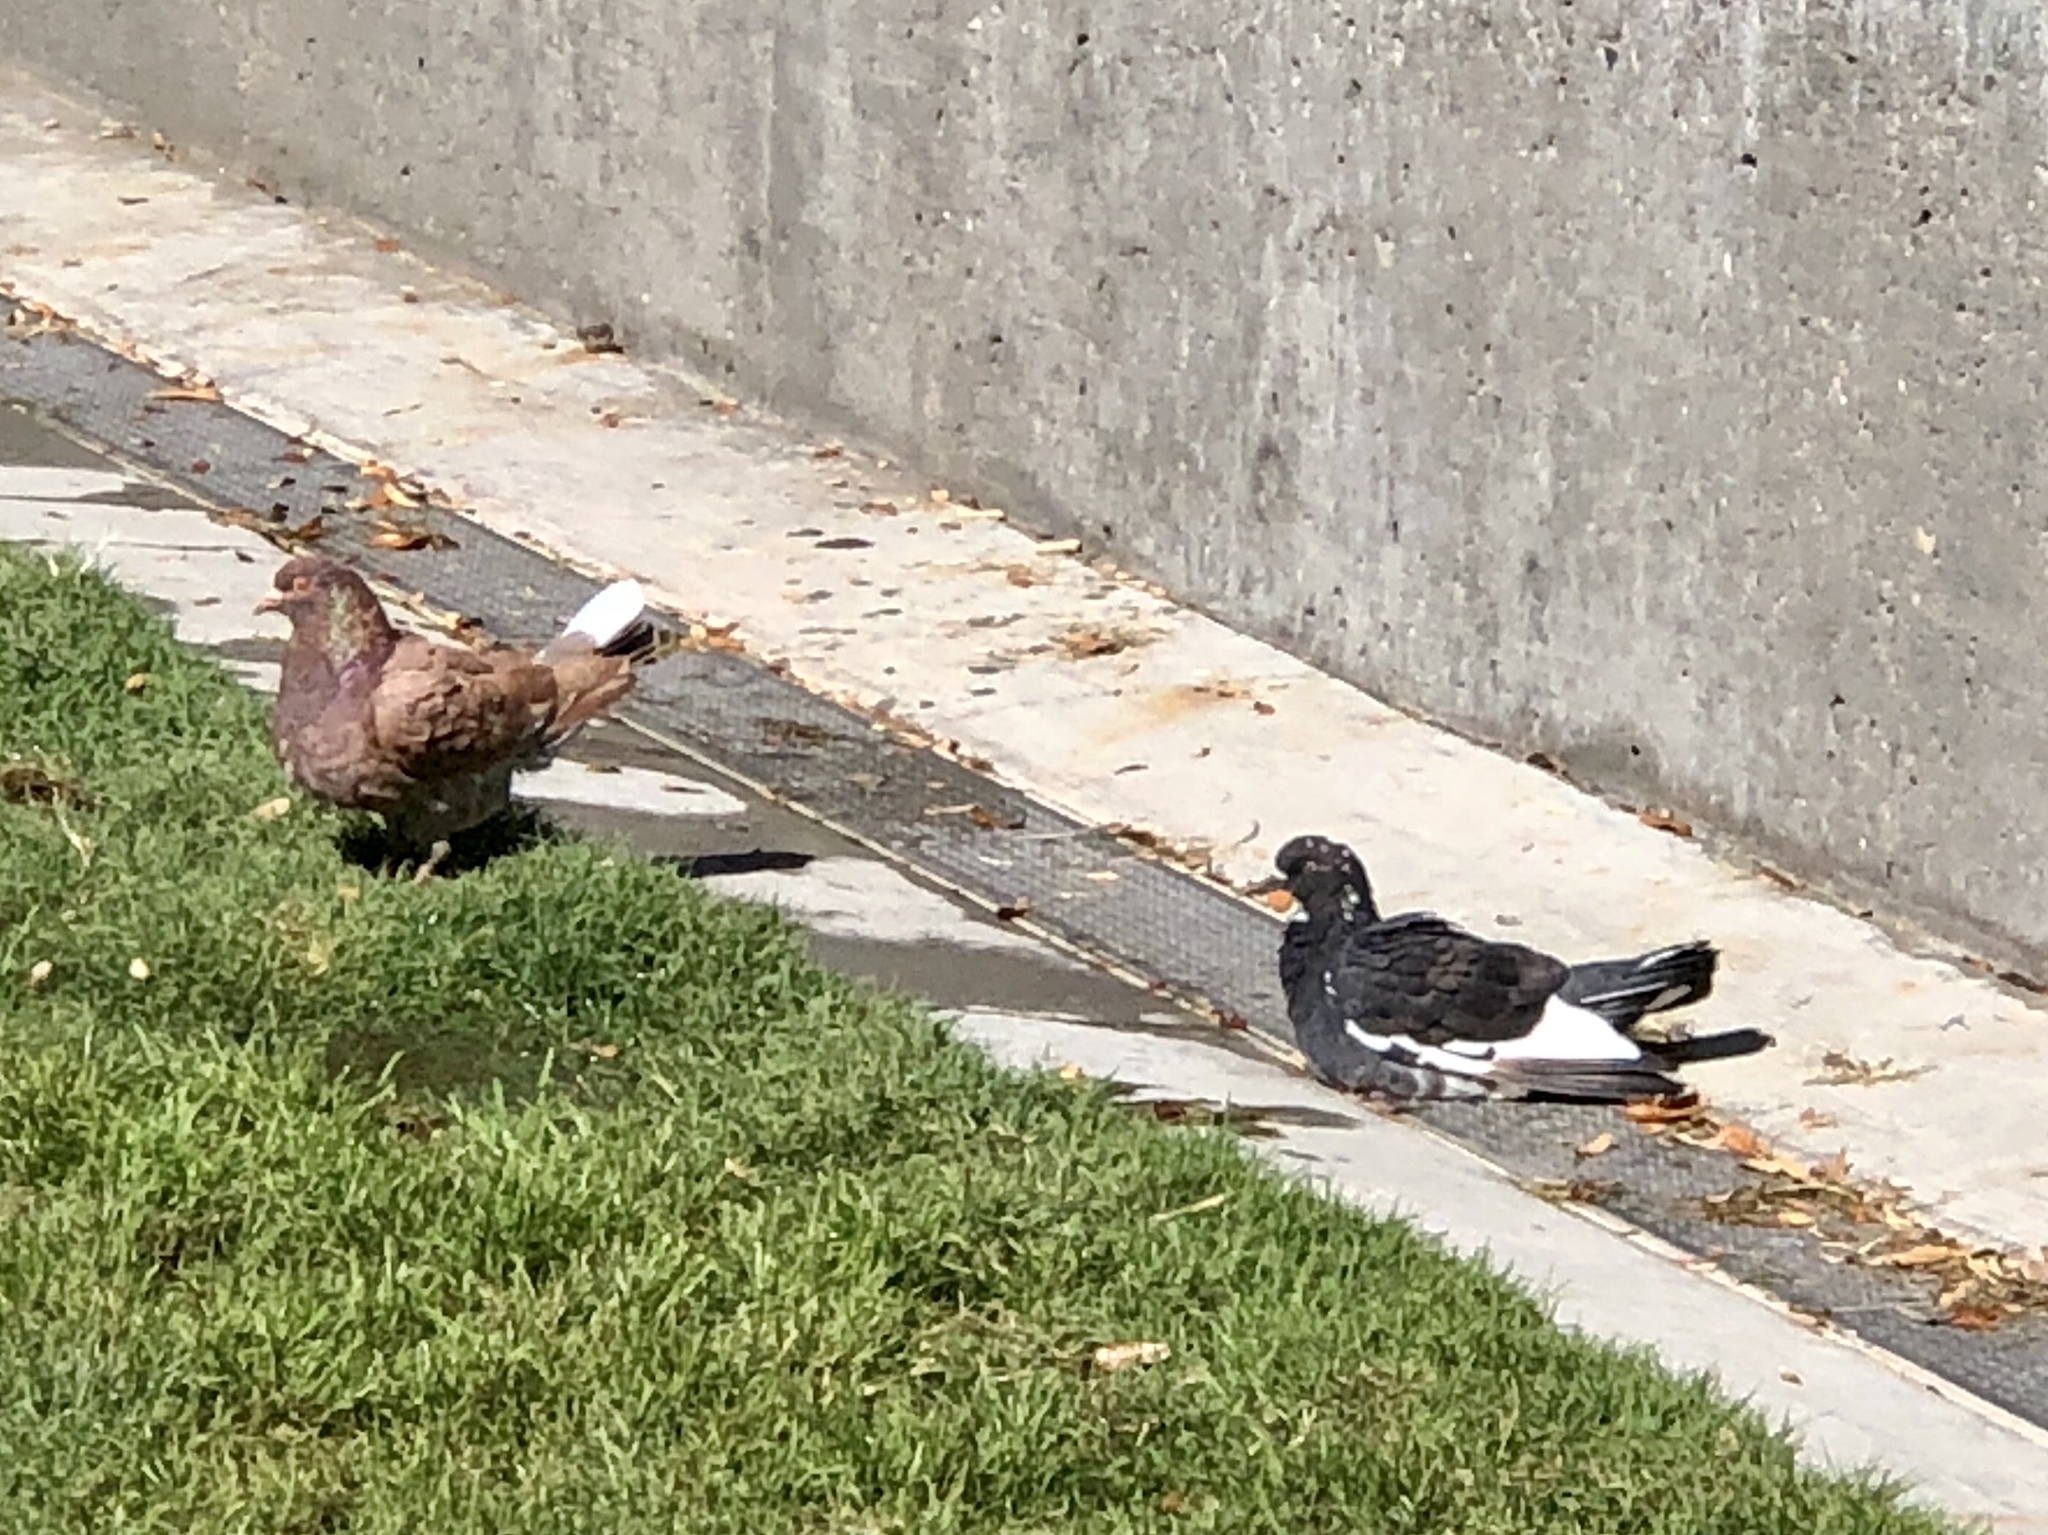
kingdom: Animalia
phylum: Chordata
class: Aves
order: Columbiformes
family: Columbidae
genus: Columba
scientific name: Columba livia
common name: Rock pigeon
